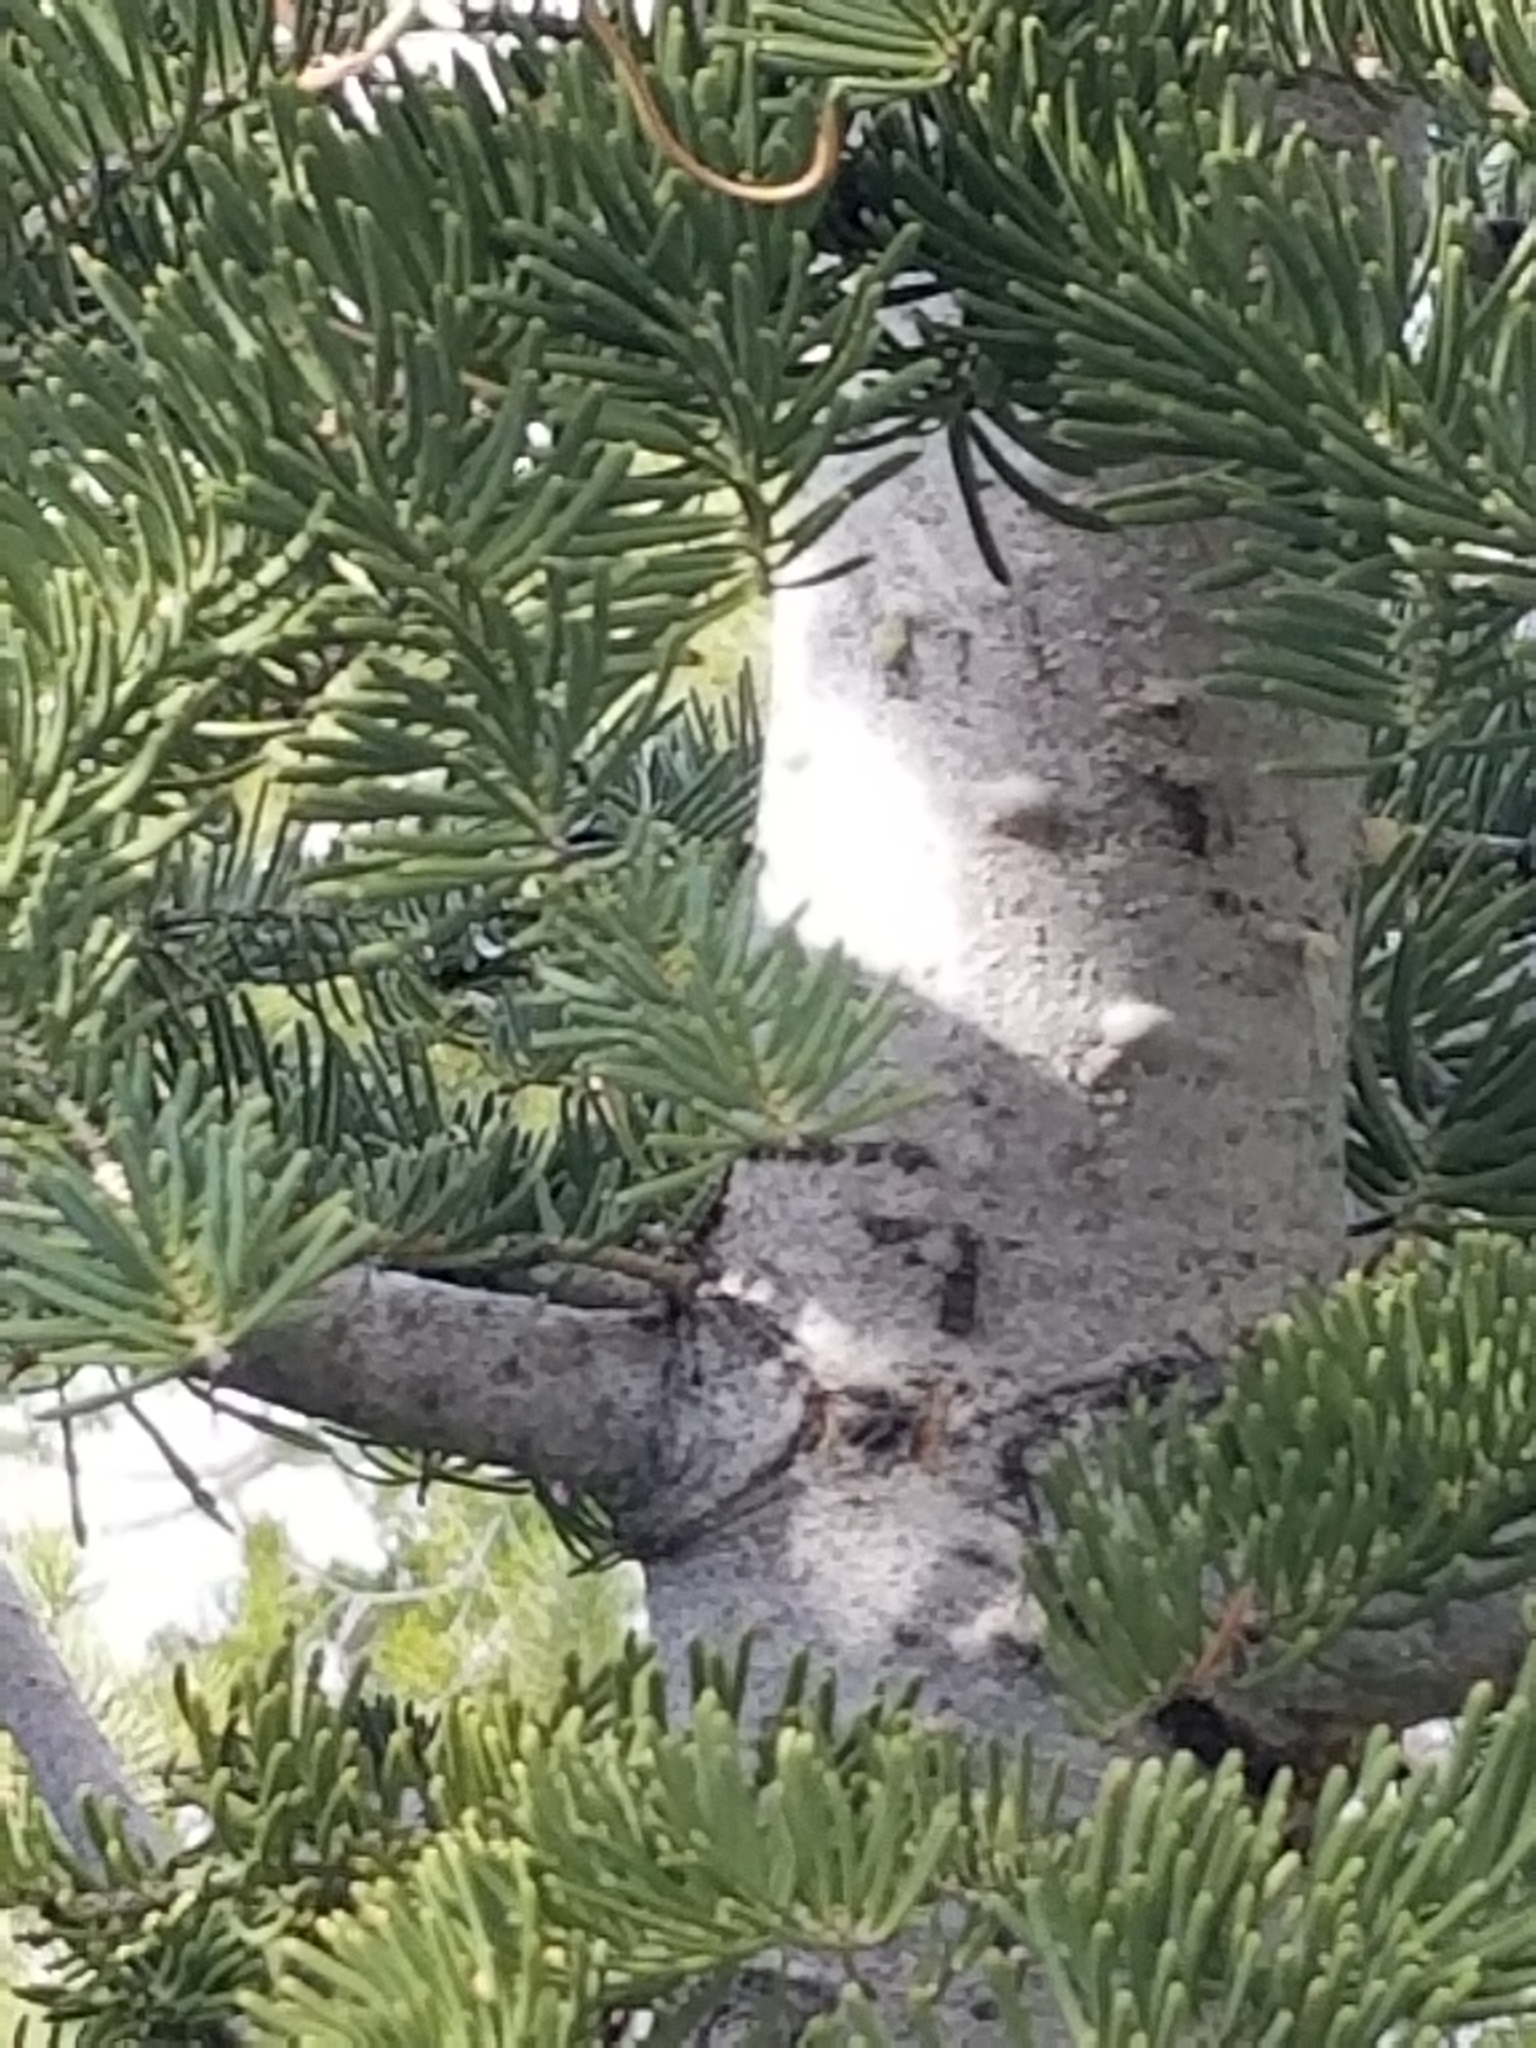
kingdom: Plantae
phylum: Tracheophyta
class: Pinopsida
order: Pinales
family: Pinaceae
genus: Abies
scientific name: Abies concolor
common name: Colorado fir
